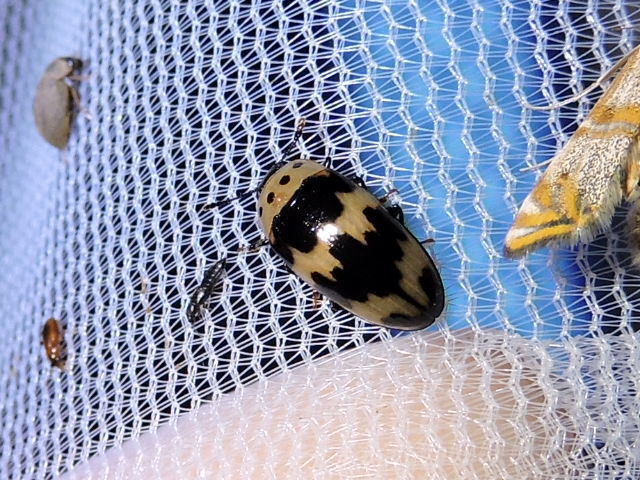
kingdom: Animalia
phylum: Arthropoda
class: Insecta
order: Coleoptera
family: Erotylidae
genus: Ischyrus
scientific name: Ischyrus quadripunctatus
